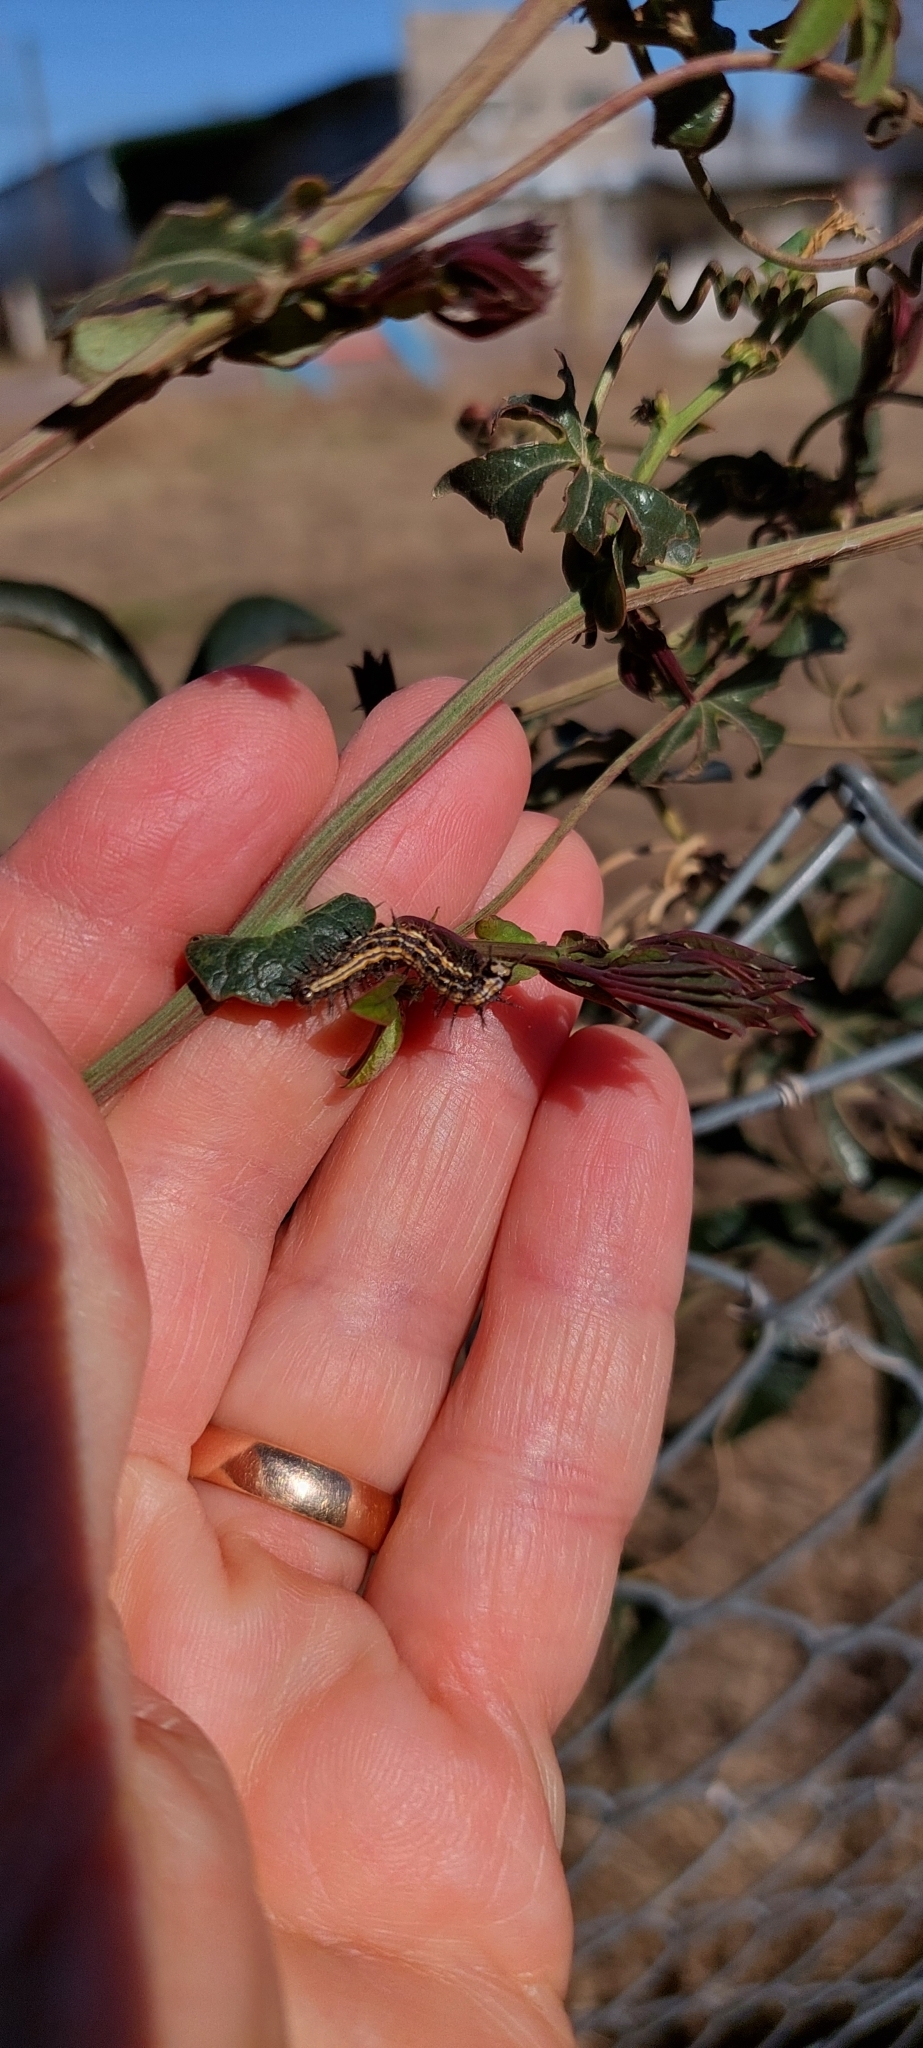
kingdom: Animalia
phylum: Arthropoda
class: Insecta
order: Lepidoptera
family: Nymphalidae
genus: Dione
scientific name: Dione vanillae
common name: Gulf fritillary
